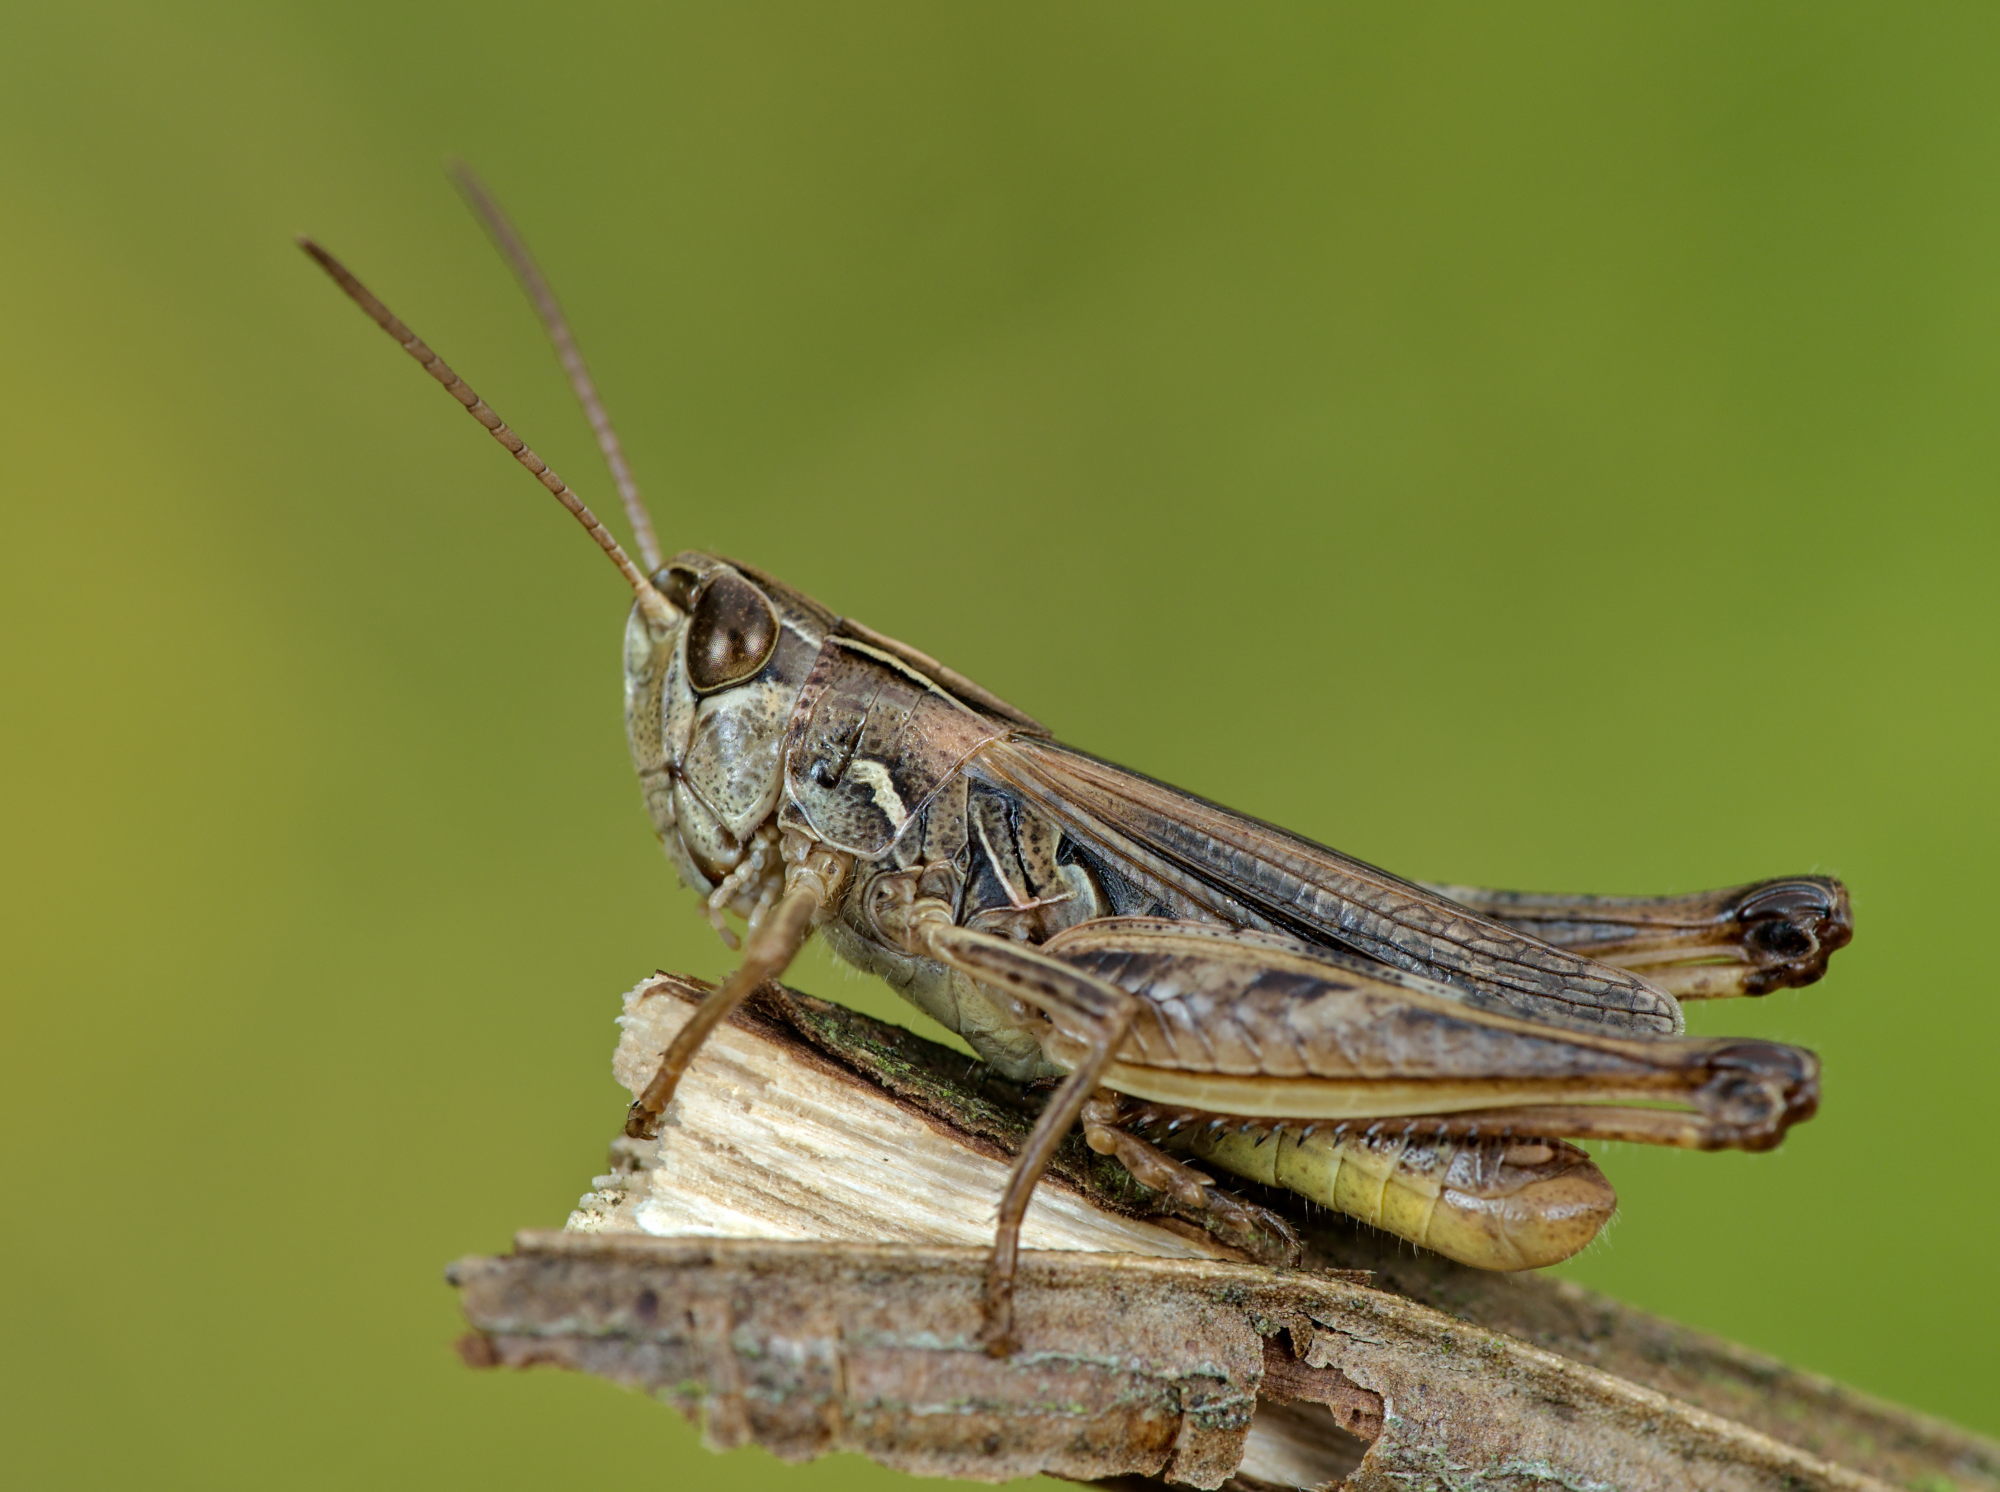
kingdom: Animalia
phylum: Arthropoda
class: Insecta
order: Orthoptera
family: Acrididae
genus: Stenobothrus
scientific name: Stenobothrus stigmaticus
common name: Lesser mottled grasshopper
